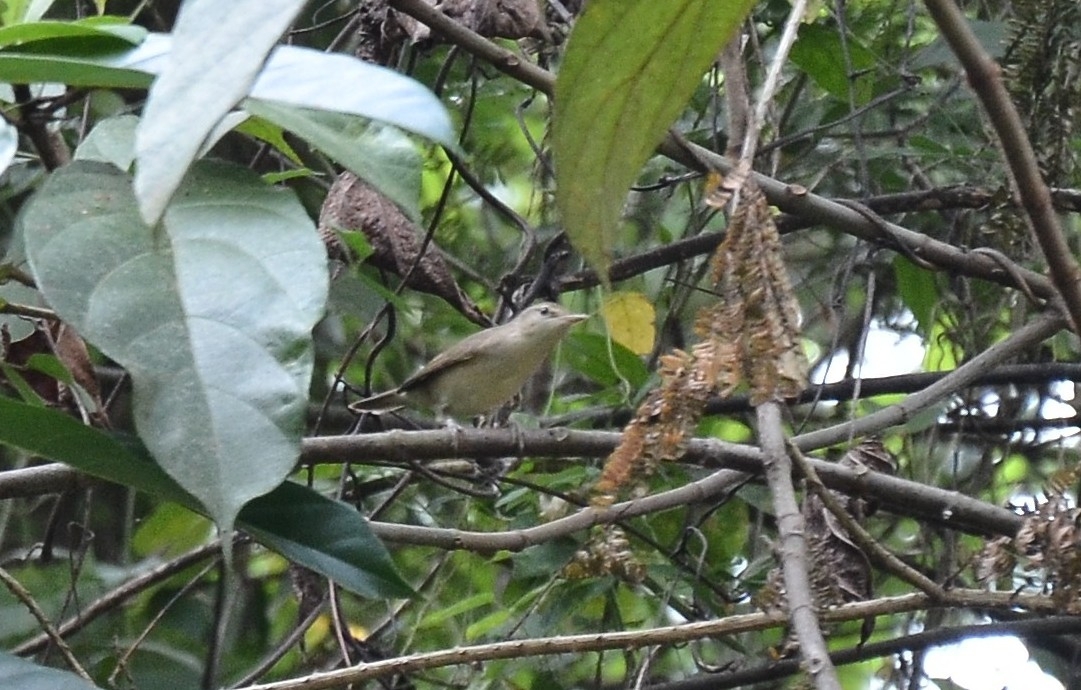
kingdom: Animalia
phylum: Chordata
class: Aves
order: Passeriformes
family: Acrocephalidae
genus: Acrocephalus
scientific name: Acrocephalus dumetorum
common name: Blyth's reed warbler
